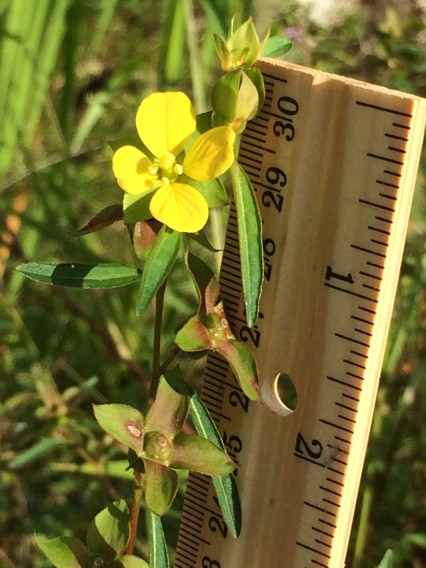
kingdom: Plantae
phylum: Tracheophyta
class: Magnoliopsida
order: Myrtales
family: Onagraceae
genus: Ludwigia
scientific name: Ludwigia alternifolia
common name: Rattlebox
